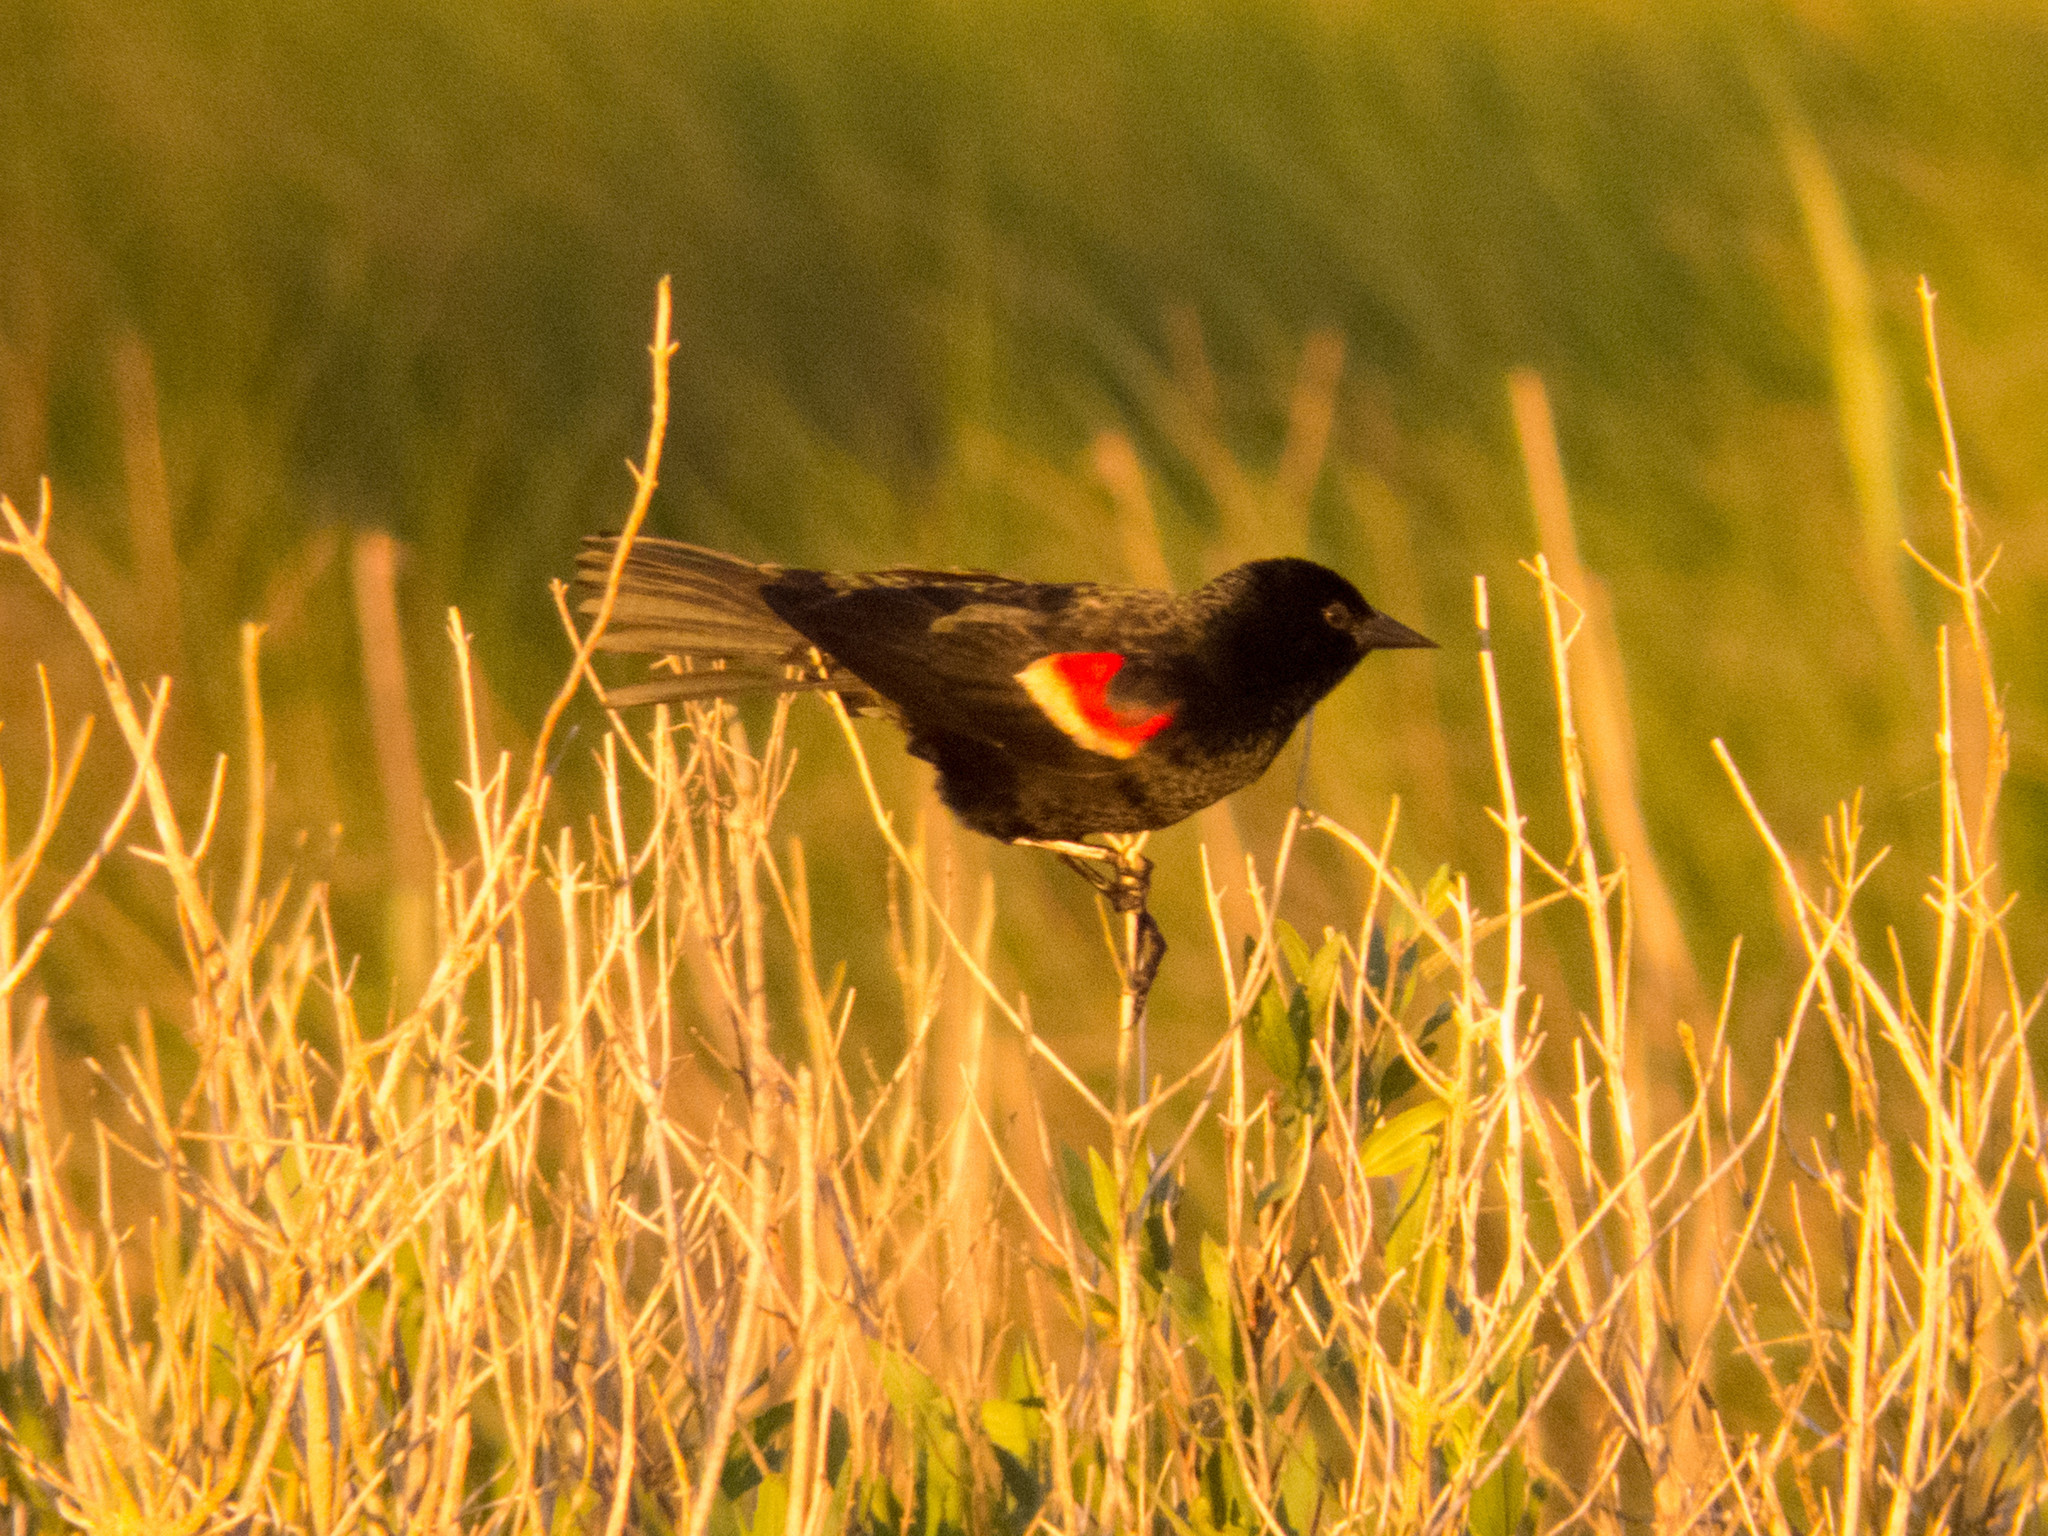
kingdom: Animalia
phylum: Chordata
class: Aves
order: Passeriformes
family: Icteridae
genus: Agelaius
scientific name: Agelaius phoeniceus
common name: Red-winged blackbird
